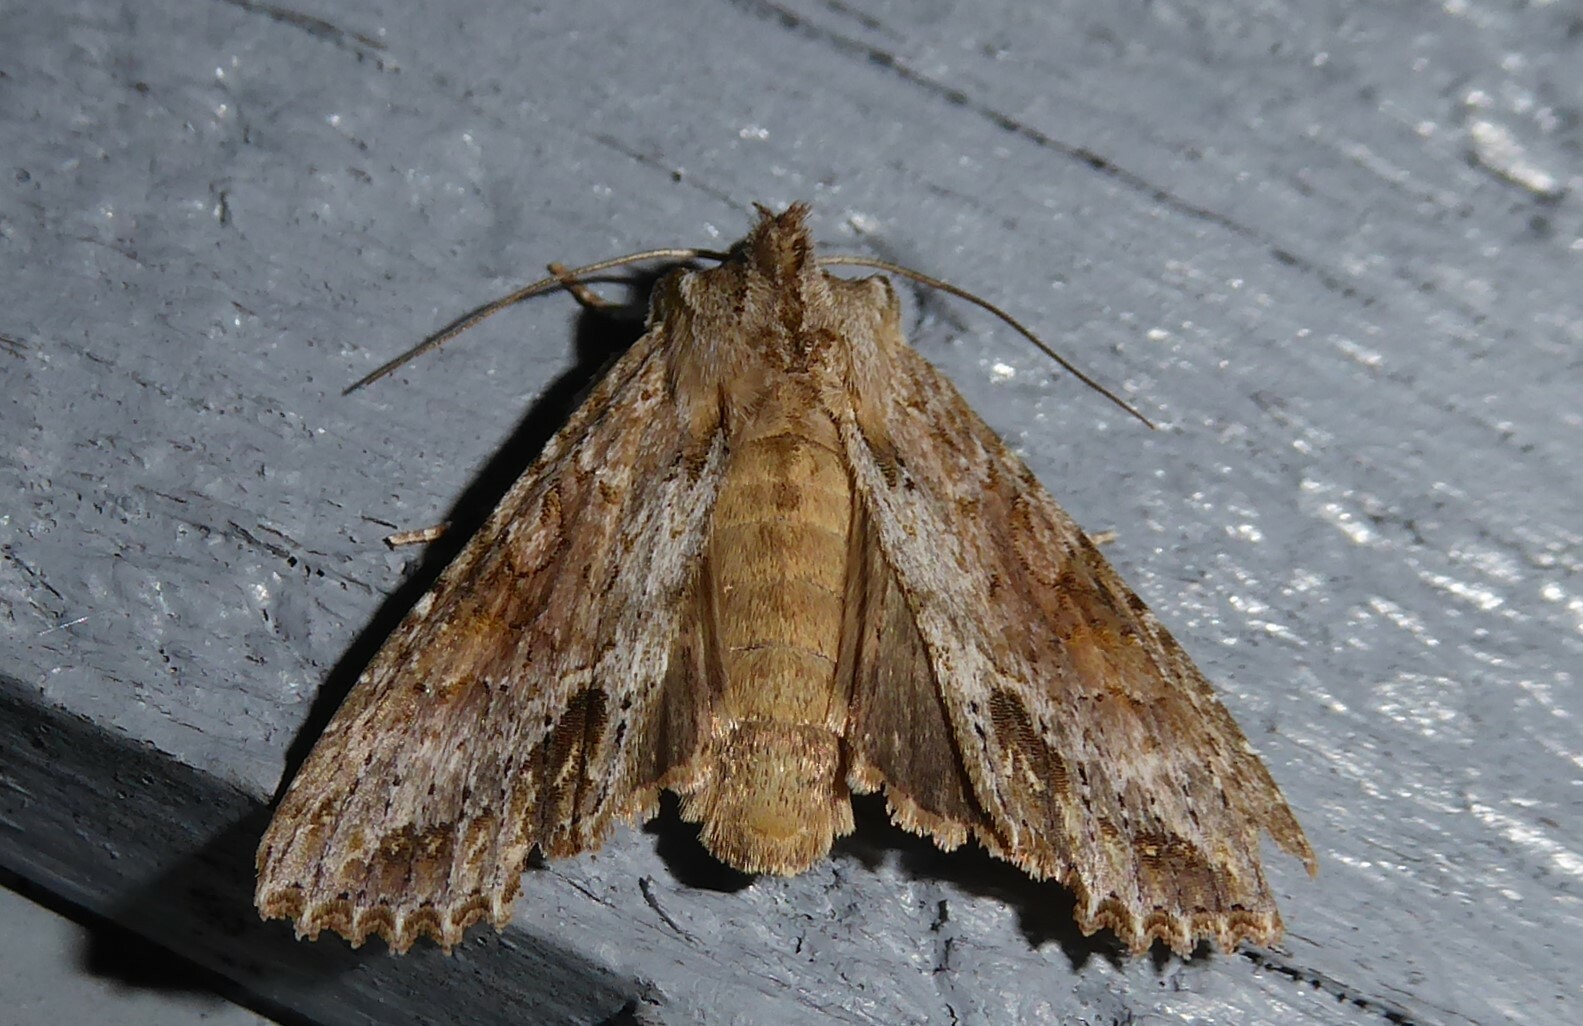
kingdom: Animalia
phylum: Arthropoda
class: Insecta
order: Lepidoptera
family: Noctuidae
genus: Ichneutica
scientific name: Ichneutica mollis
